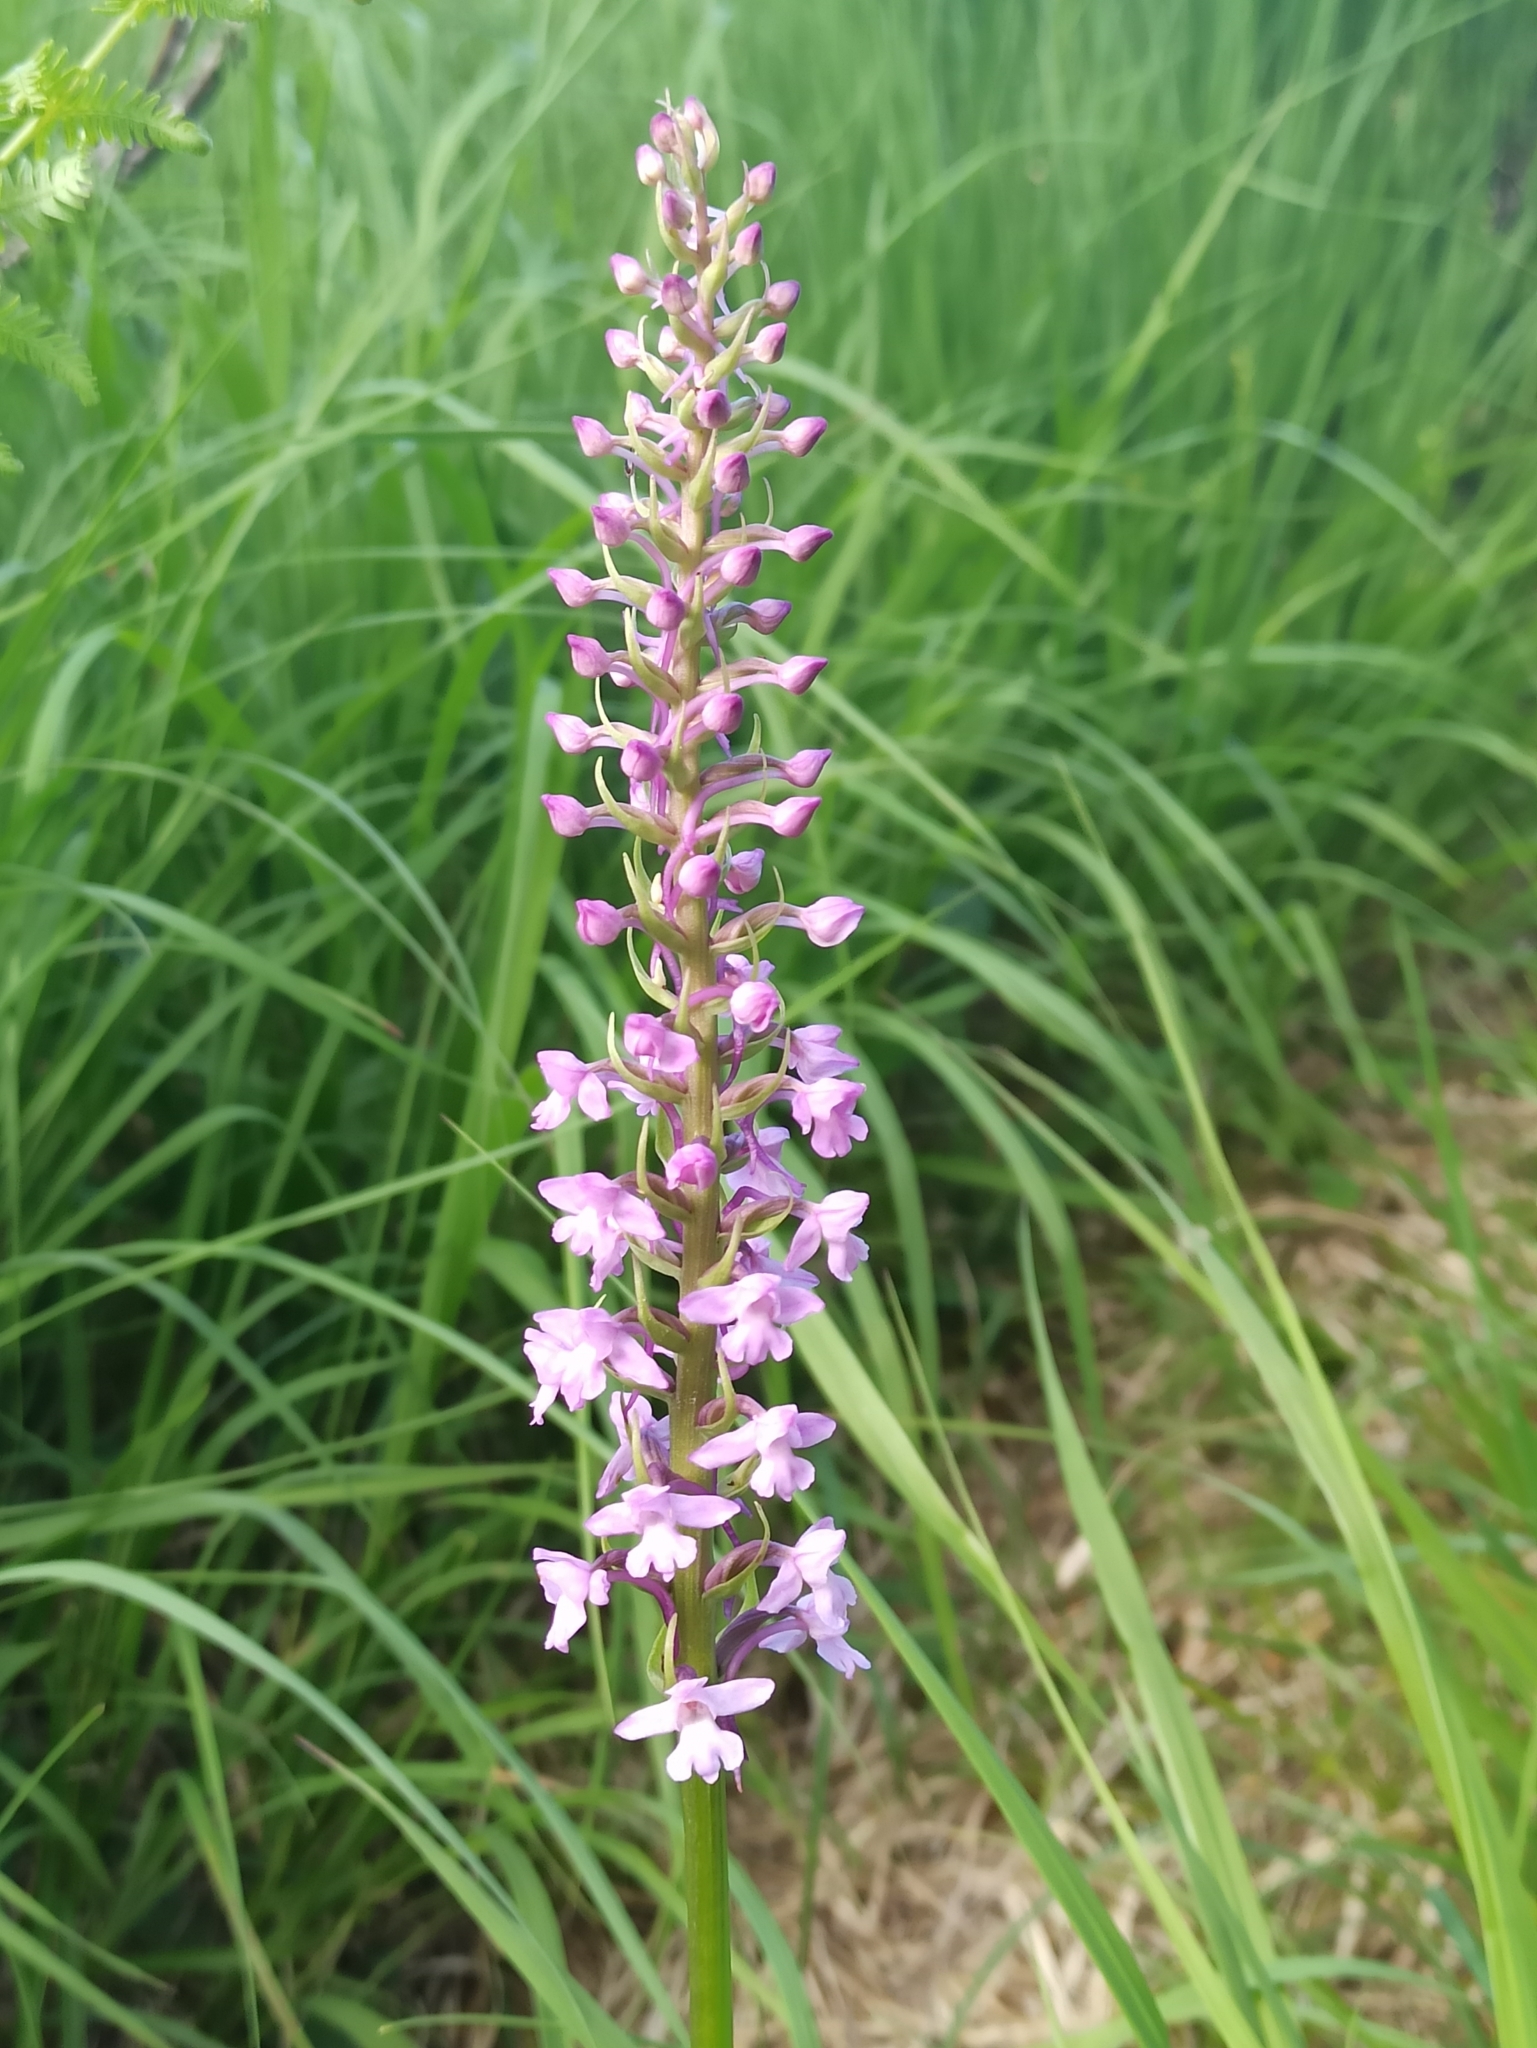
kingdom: Plantae
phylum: Tracheophyta
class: Liliopsida
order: Asparagales
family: Orchidaceae
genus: Gymnadenia
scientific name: Gymnadenia conopsea
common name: Fragrant orchid
